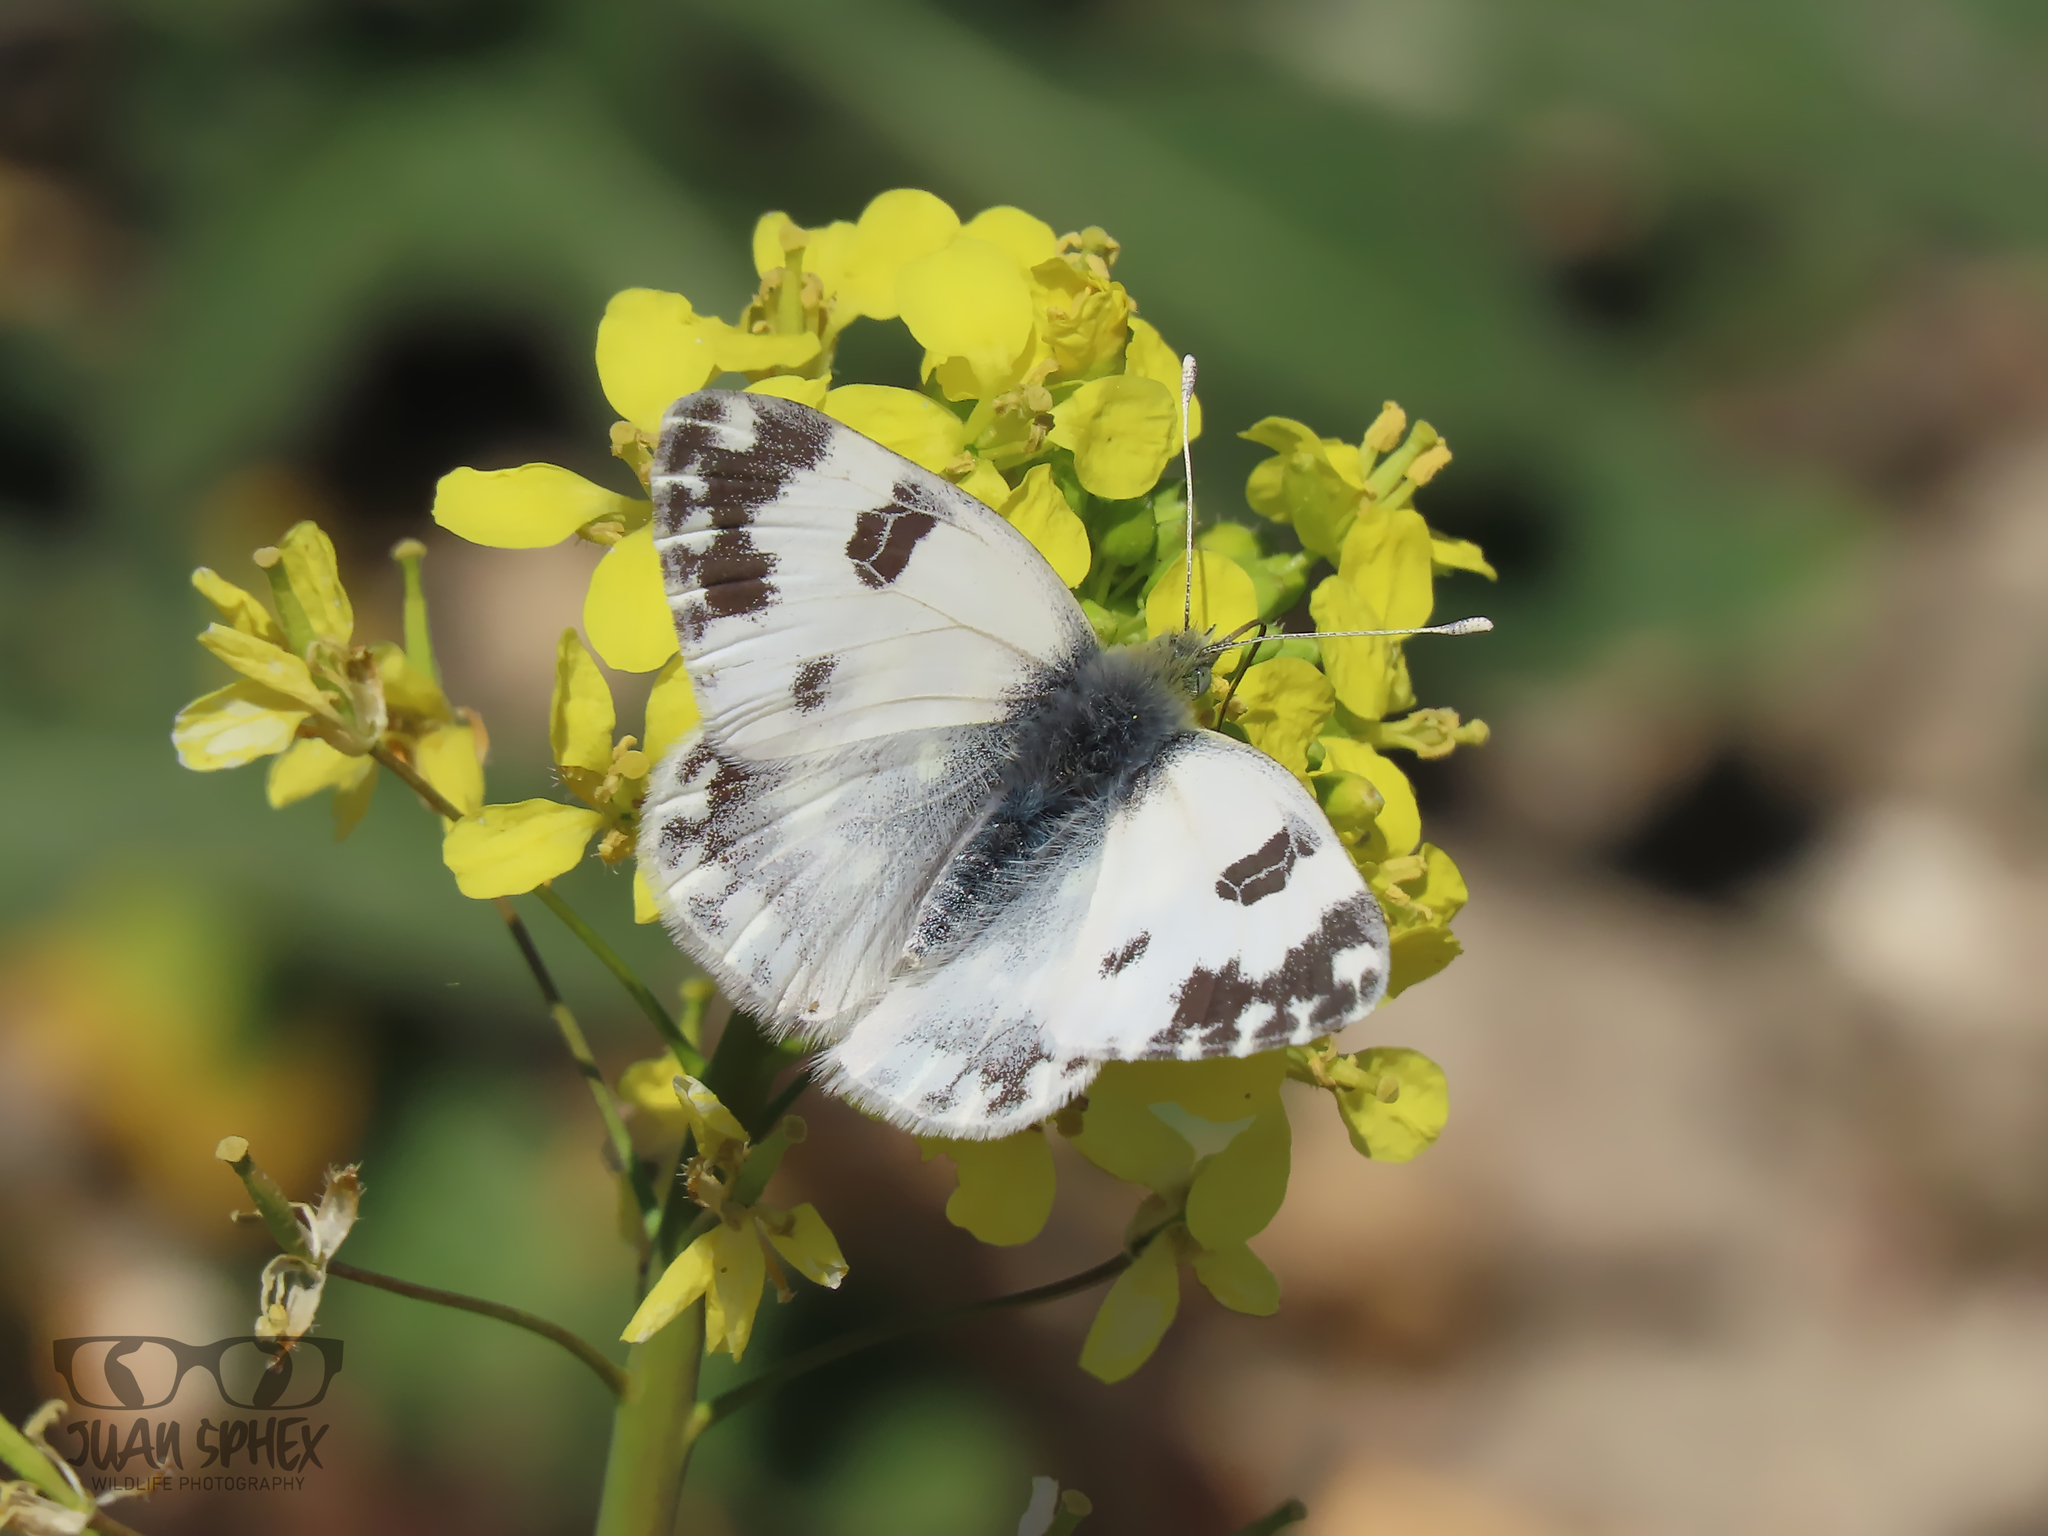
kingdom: Animalia
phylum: Arthropoda
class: Insecta
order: Lepidoptera
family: Pieridae
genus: Pontia
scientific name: Pontia daplidice
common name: Bath white
